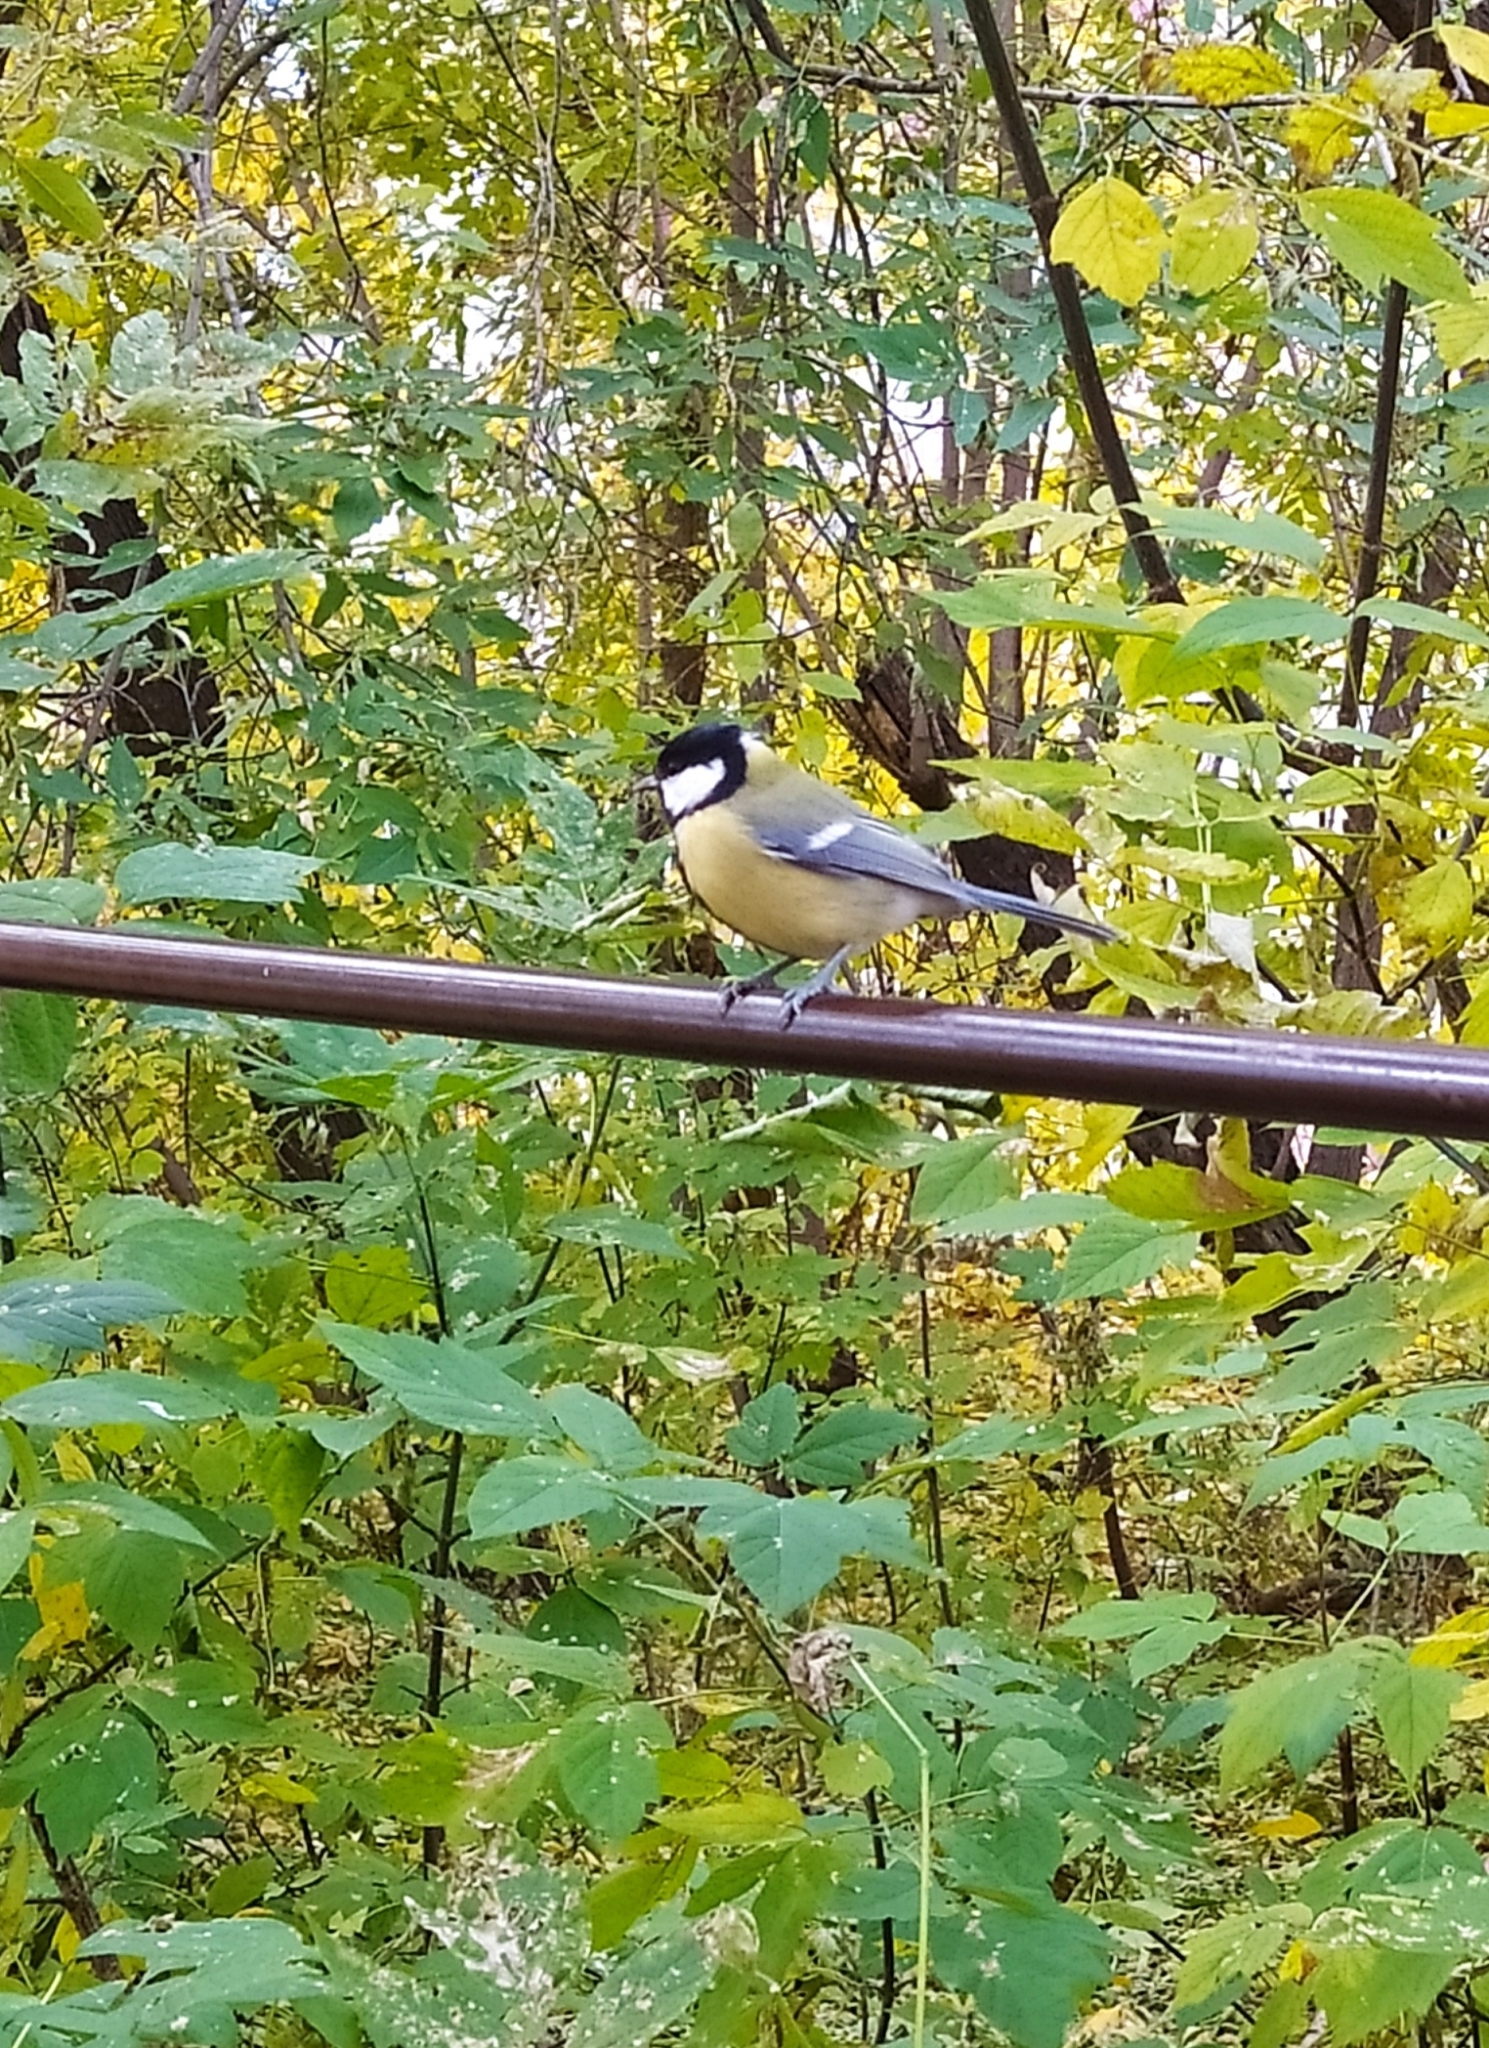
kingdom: Animalia
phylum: Chordata
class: Aves
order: Passeriformes
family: Paridae
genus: Parus
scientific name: Parus major
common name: Great tit
